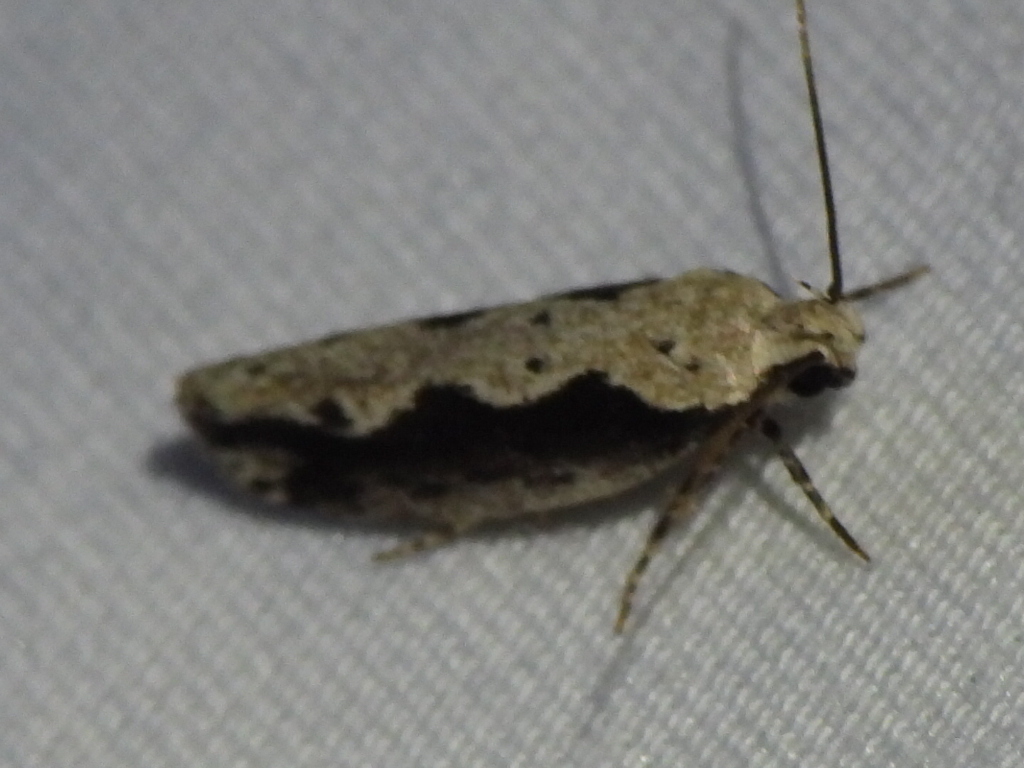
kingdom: Animalia
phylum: Arthropoda
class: Insecta
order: Lepidoptera
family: Ethmiidae
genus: Ethmia
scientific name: Ethmia semiombra
